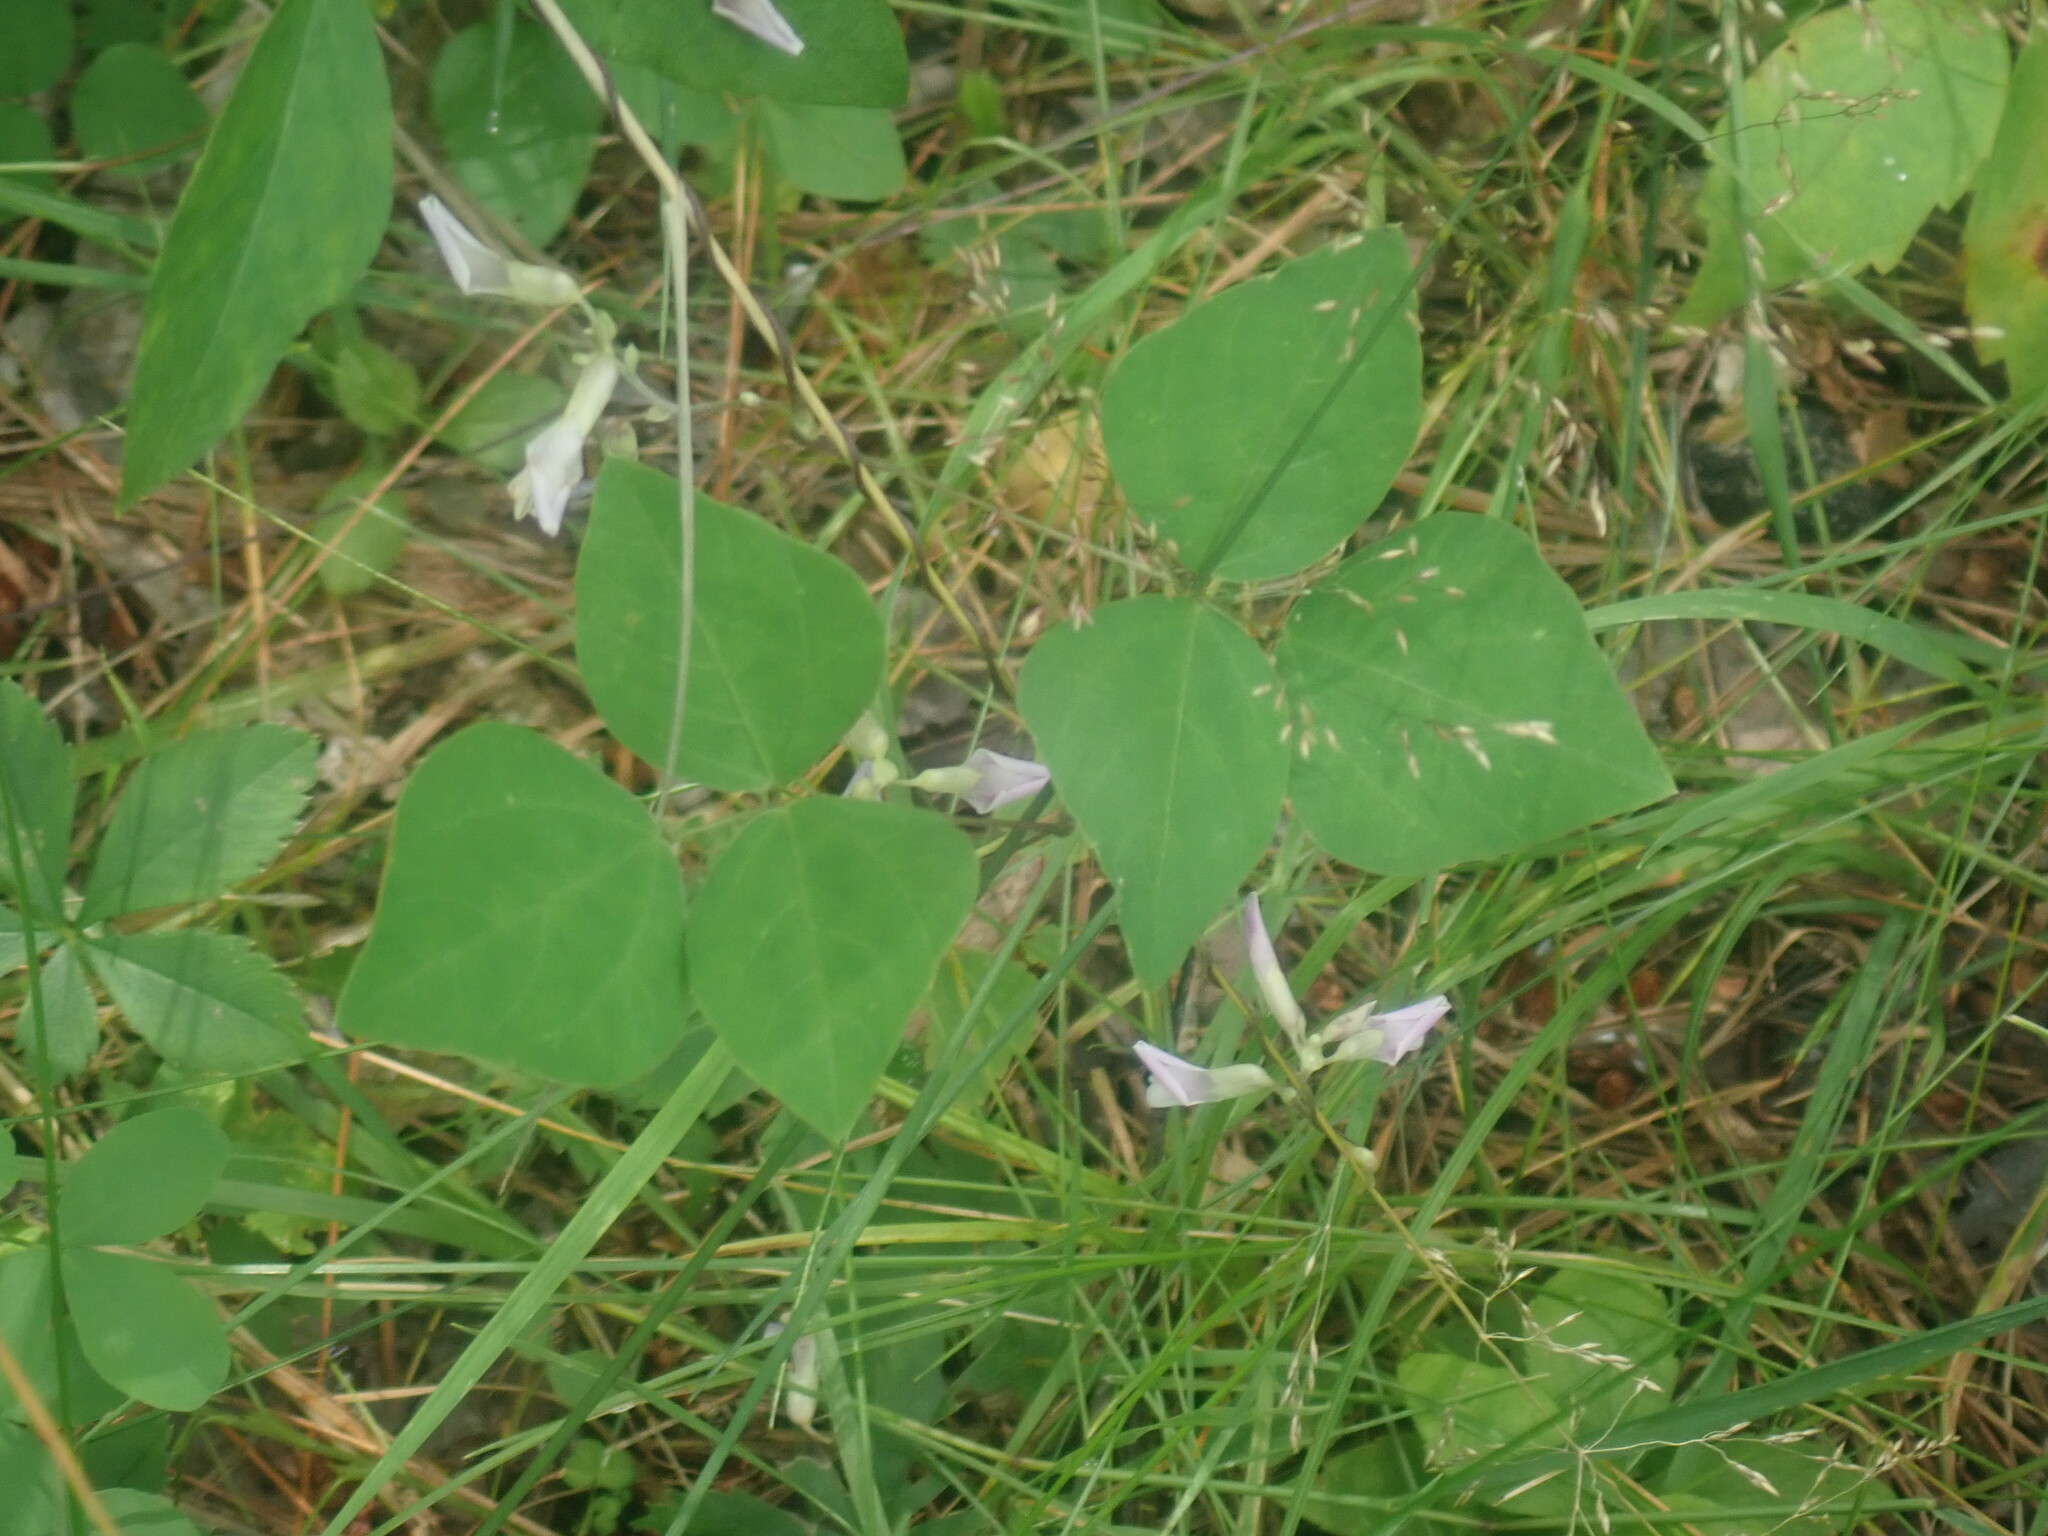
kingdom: Plantae
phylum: Tracheophyta
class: Magnoliopsida
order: Fabales
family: Fabaceae
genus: Amphicarpaea
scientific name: Amphicarpaea bracteata
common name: American hog peanut
